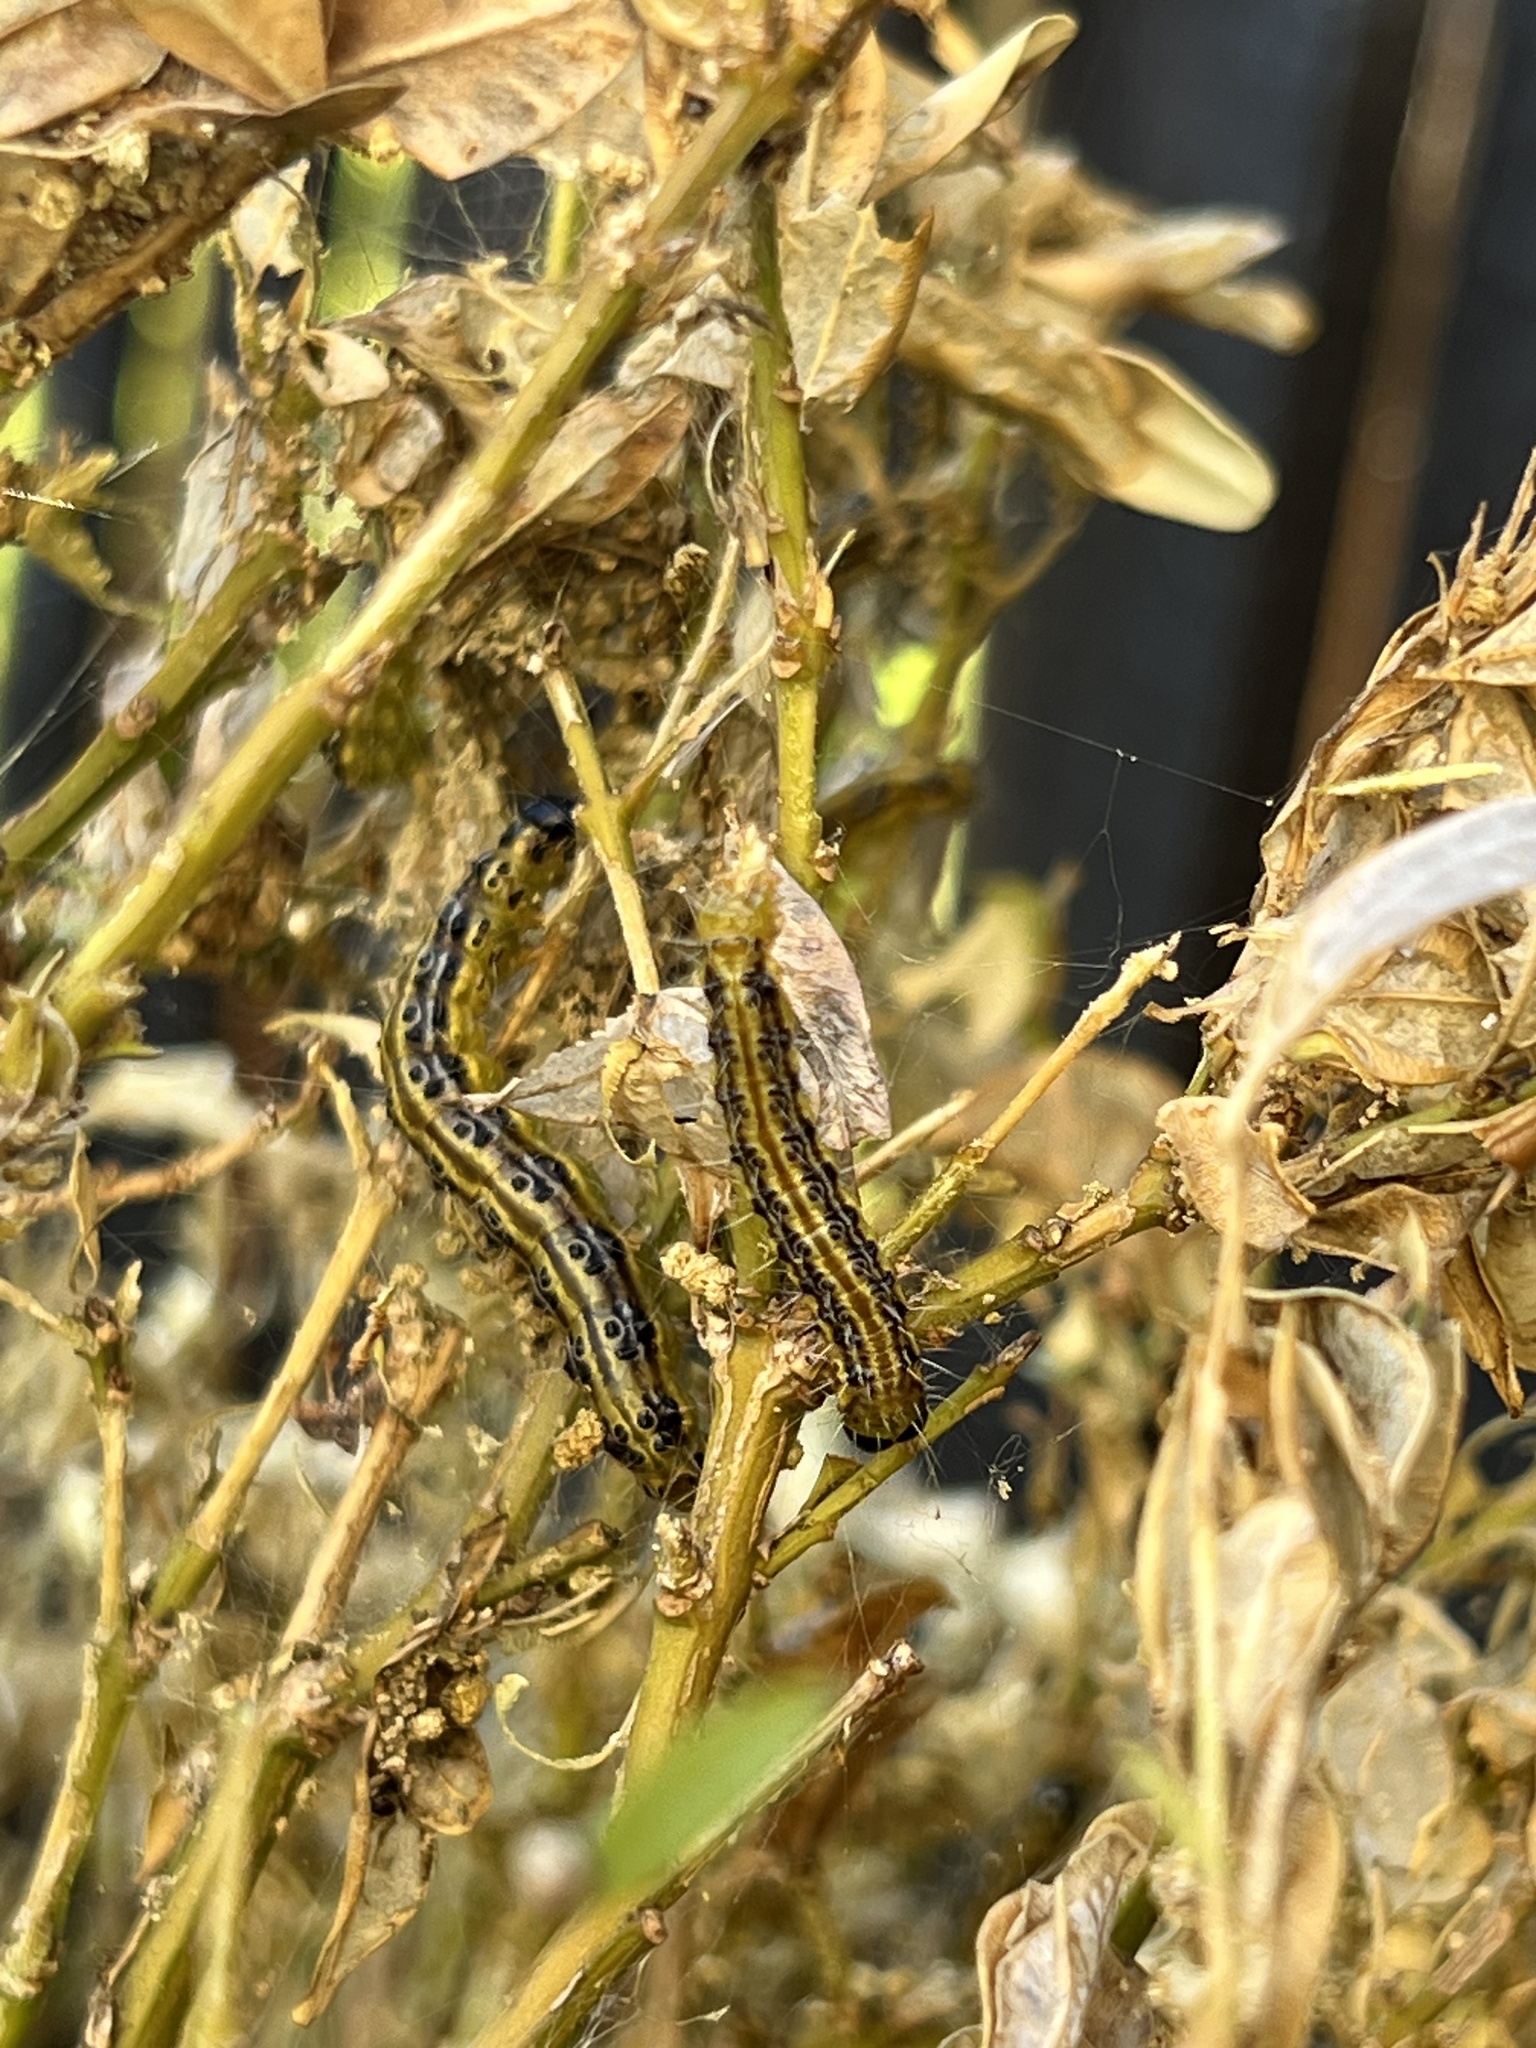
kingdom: Animalia
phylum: Arthropoda
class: Insecta
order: Lepidoptera
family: Crambidae
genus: Cydalima
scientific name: Cydalima perspectalis
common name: Box tree moth
